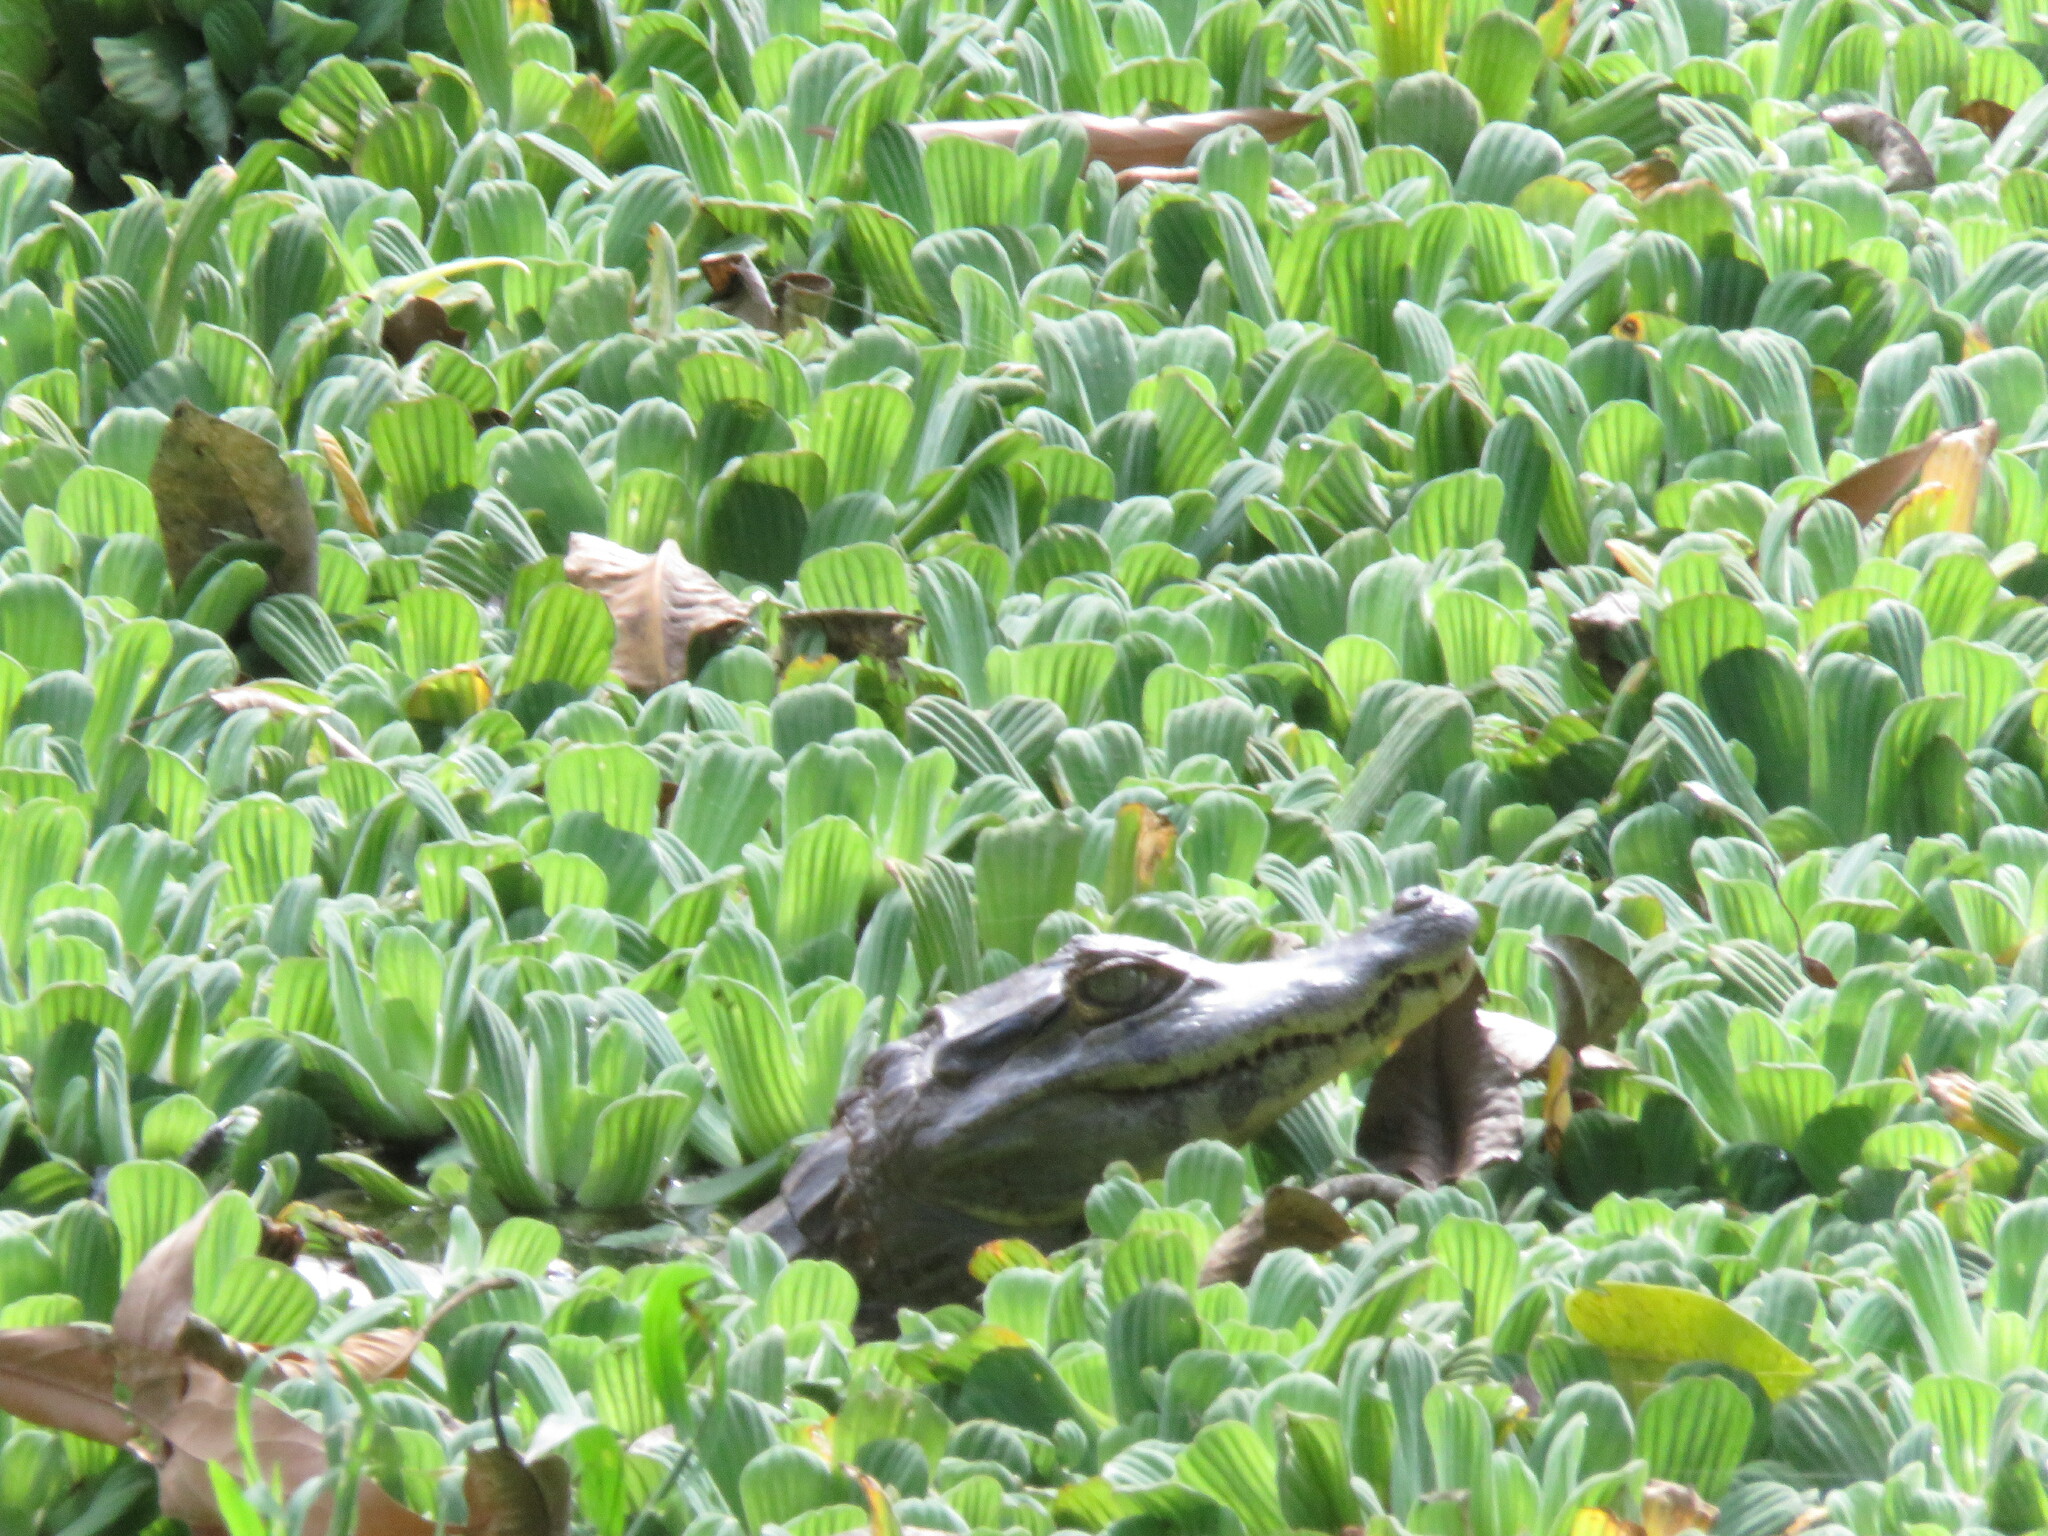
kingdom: Animalia
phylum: Chordata
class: Crocodylia
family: Alligatoridae
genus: Caiman
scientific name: Caiman yacare
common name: Yacare caiman
